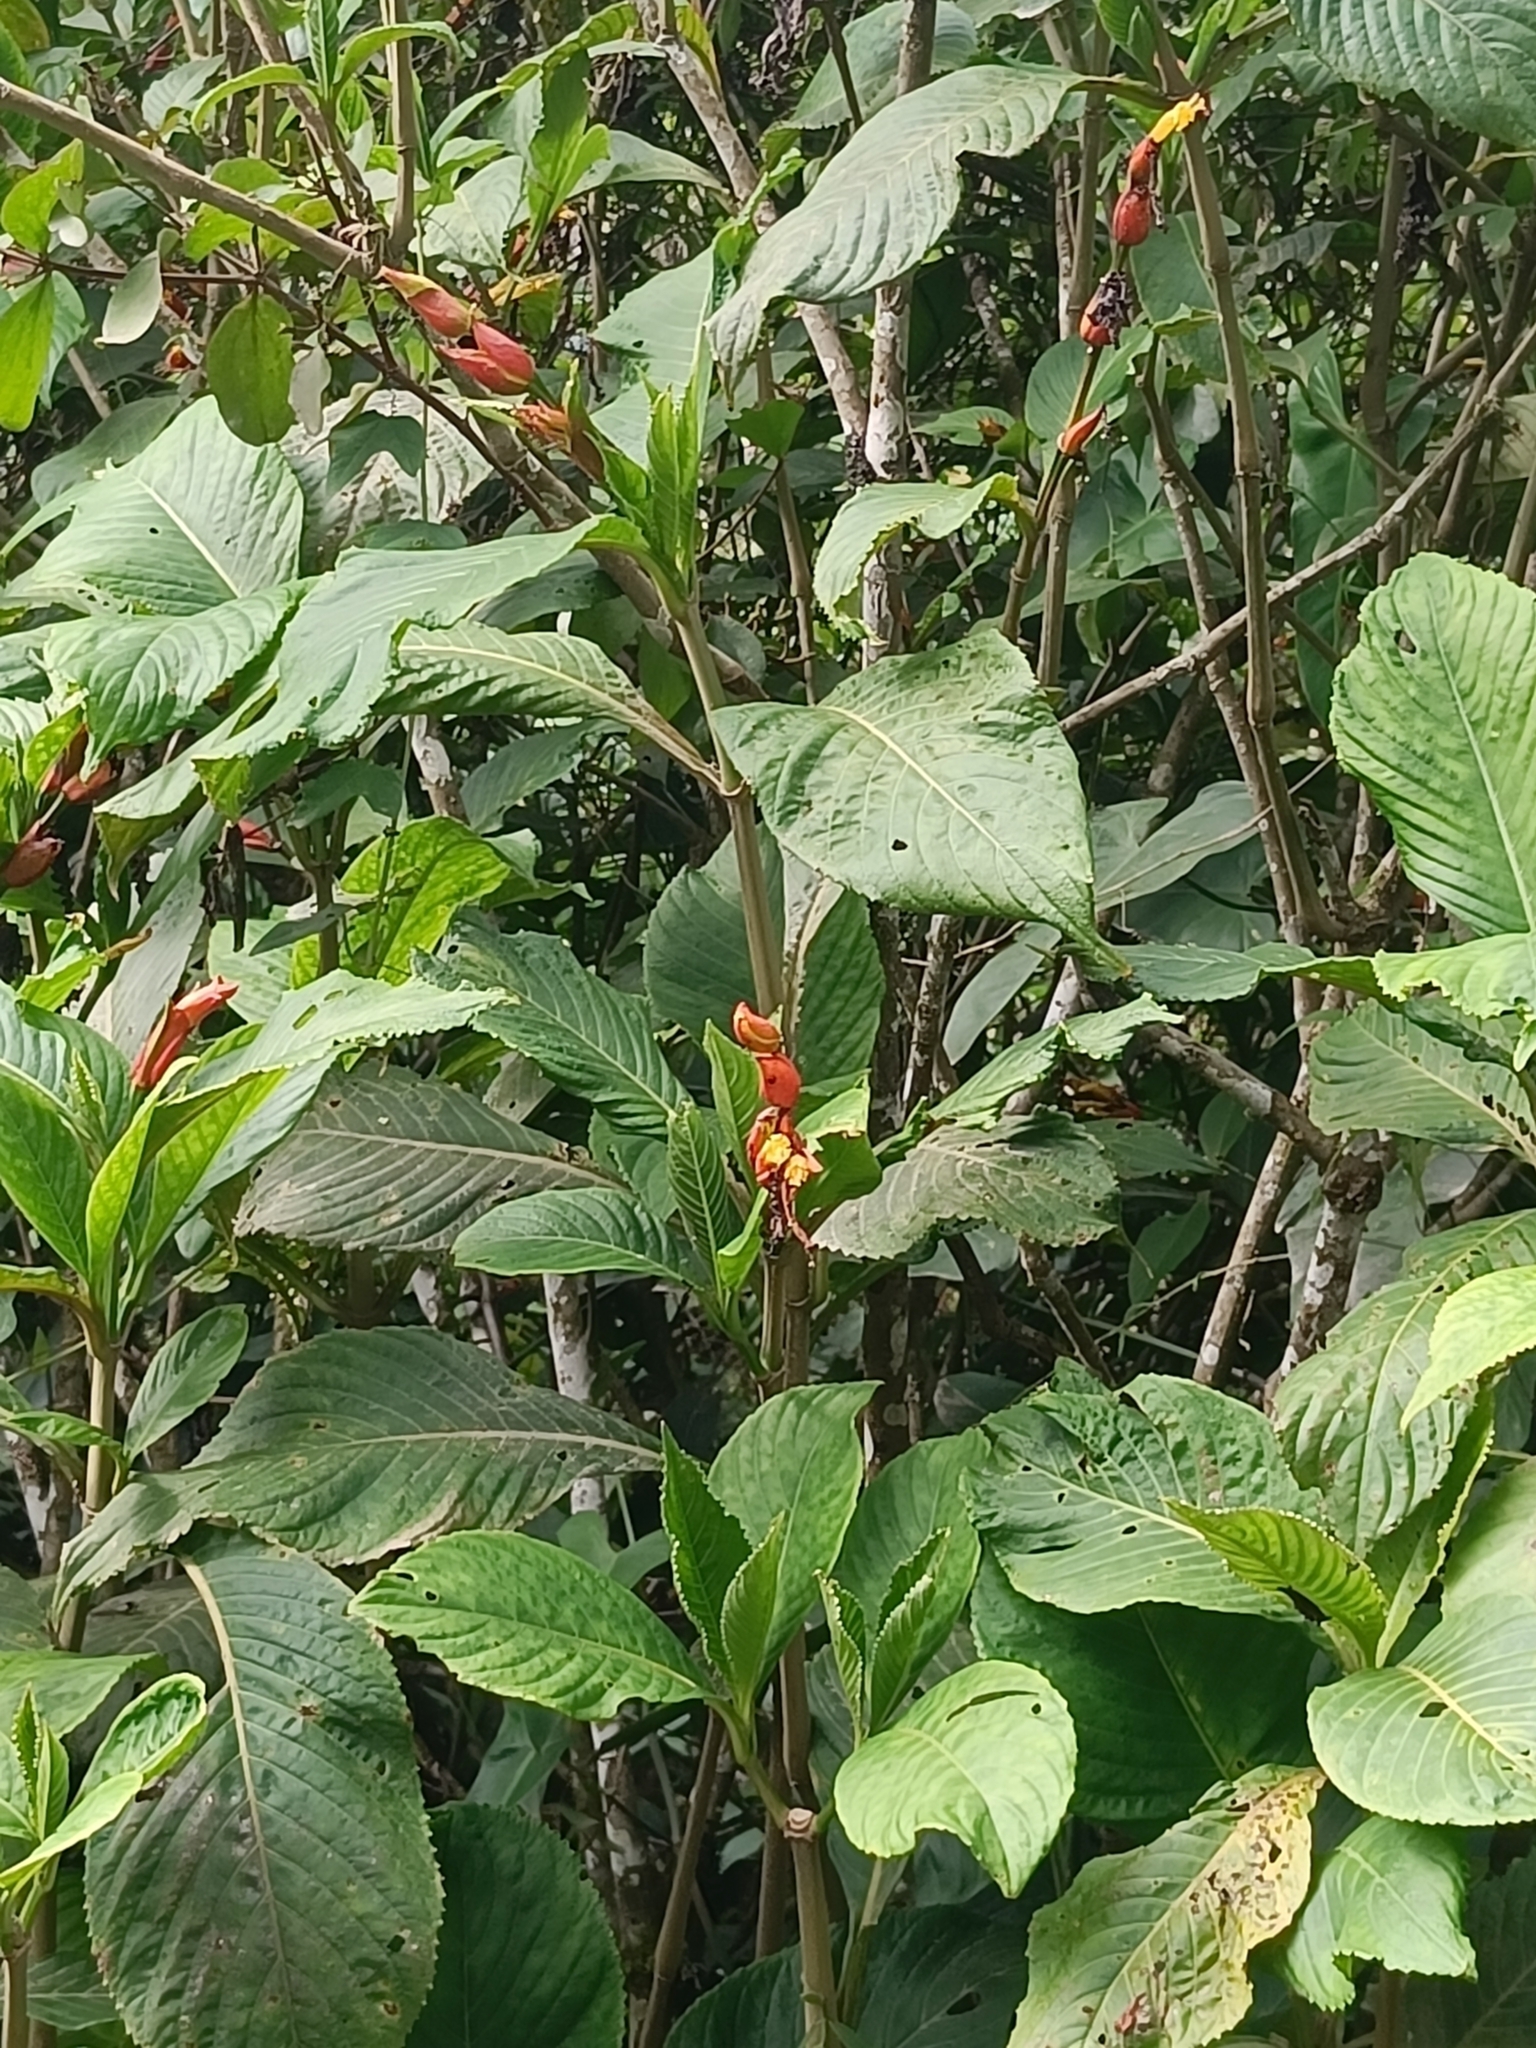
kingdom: Plantae
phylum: Tracheophyta
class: Magnoliopsida
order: Lamiales
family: Acanthaceae
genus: Sanchezia
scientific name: Sanchezia oblonga
